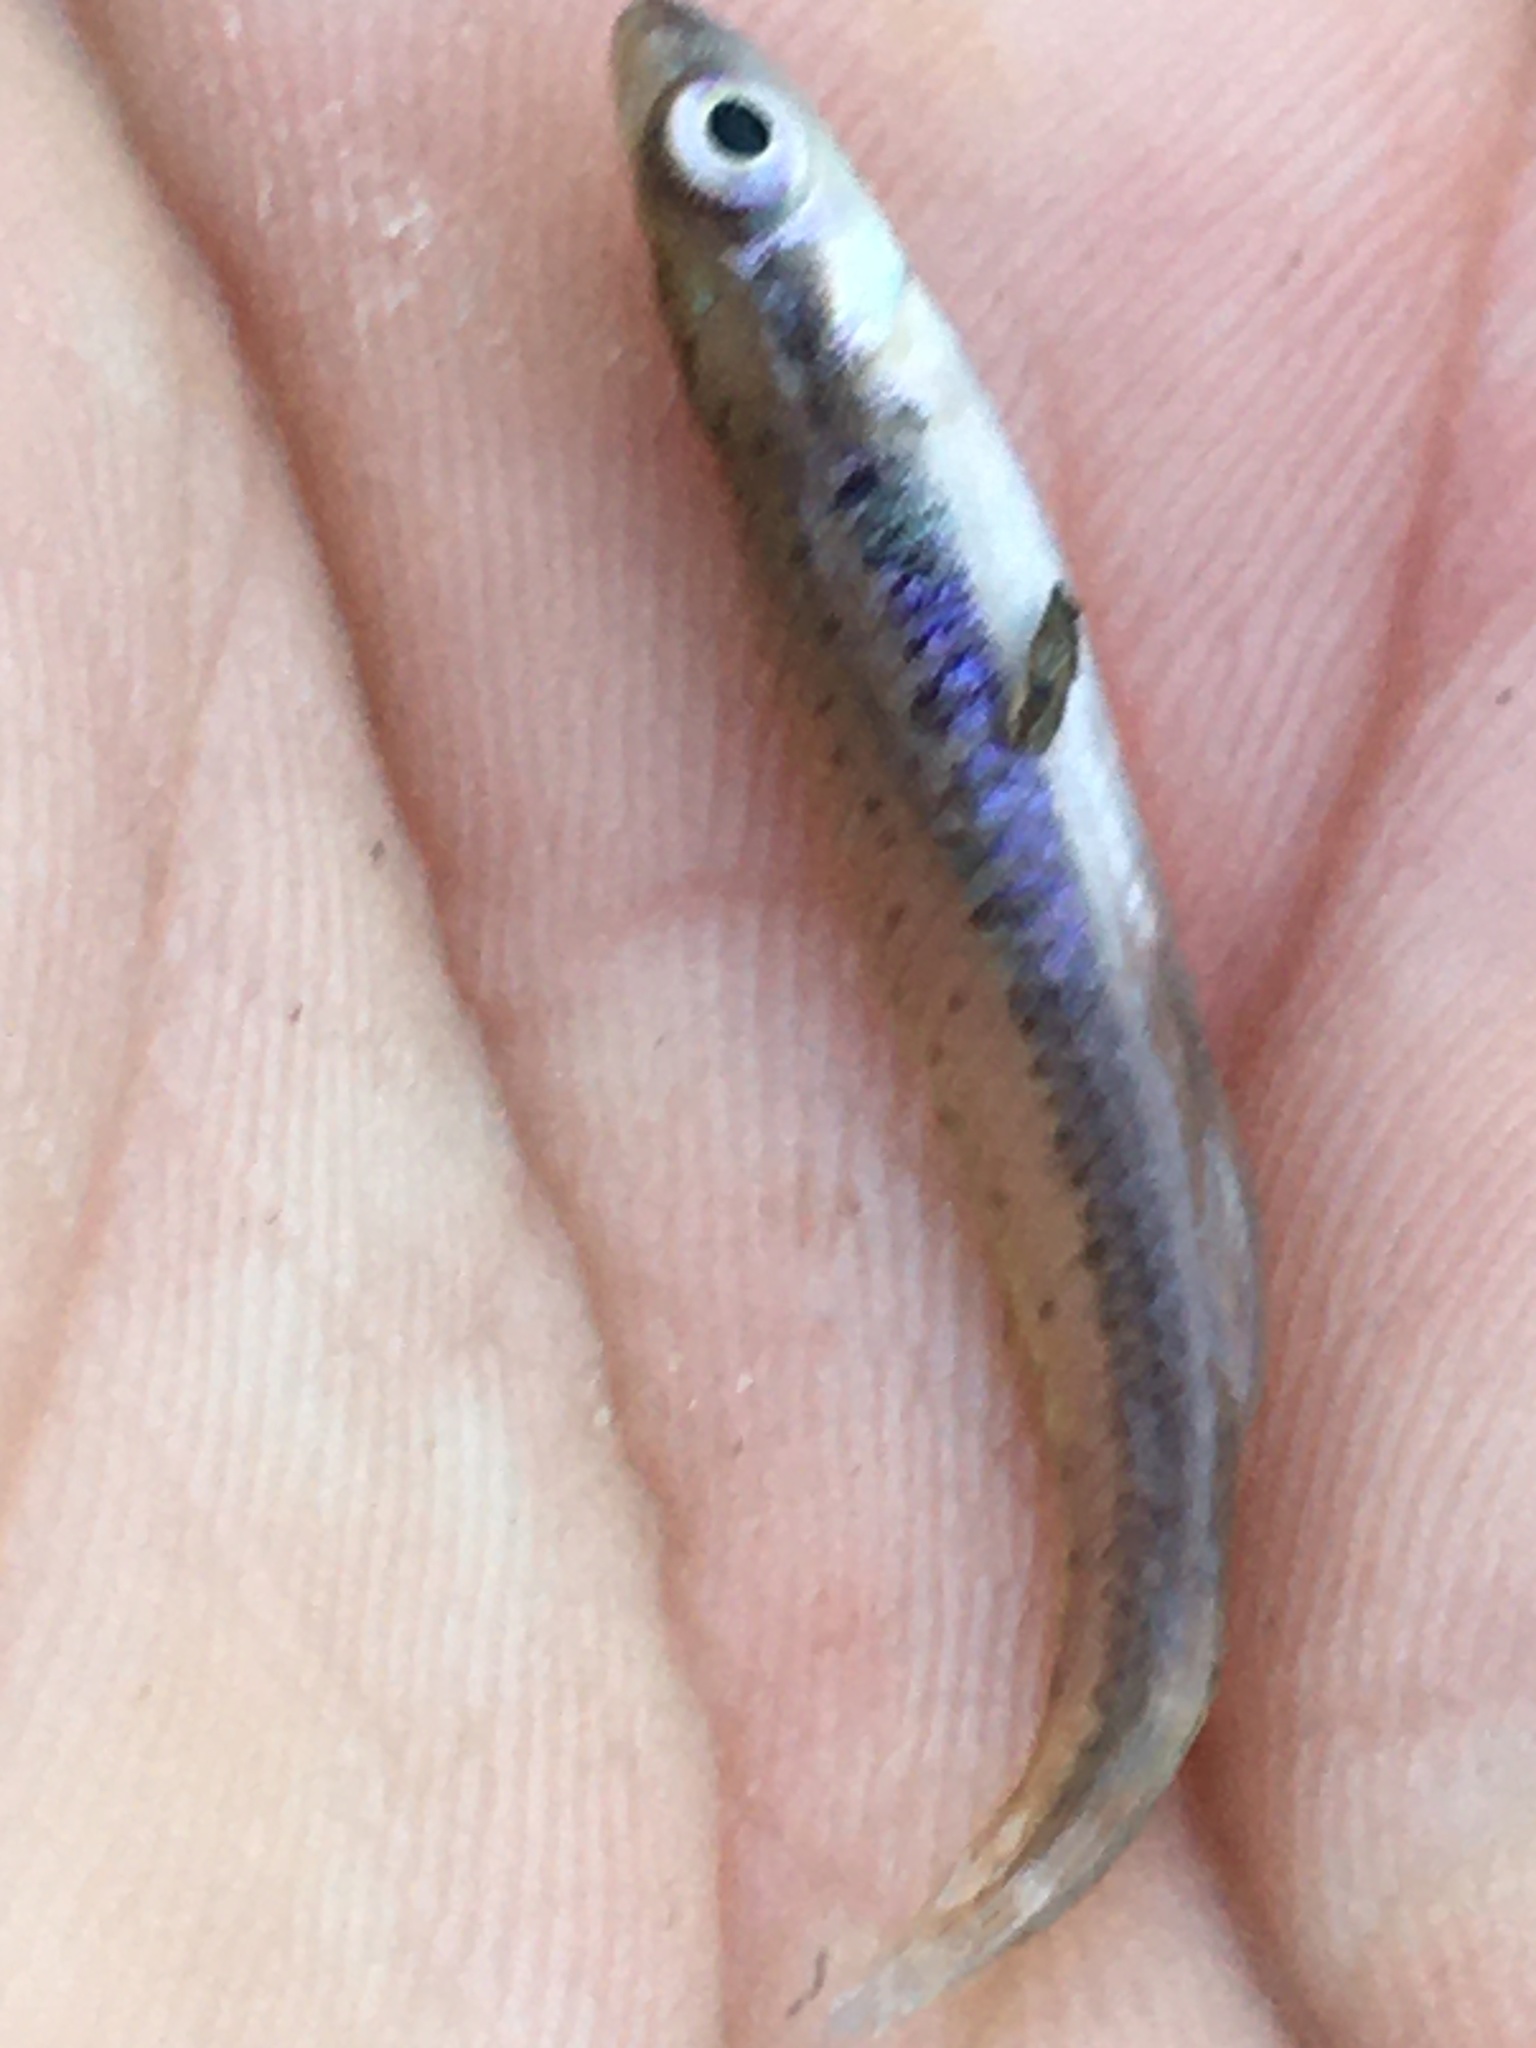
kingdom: Animalia
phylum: Chordata
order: Cyprinodontiformes
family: Fundulidae
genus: Fundulus
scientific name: Fundulus olivaceus
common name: Blackspotted topminnow
